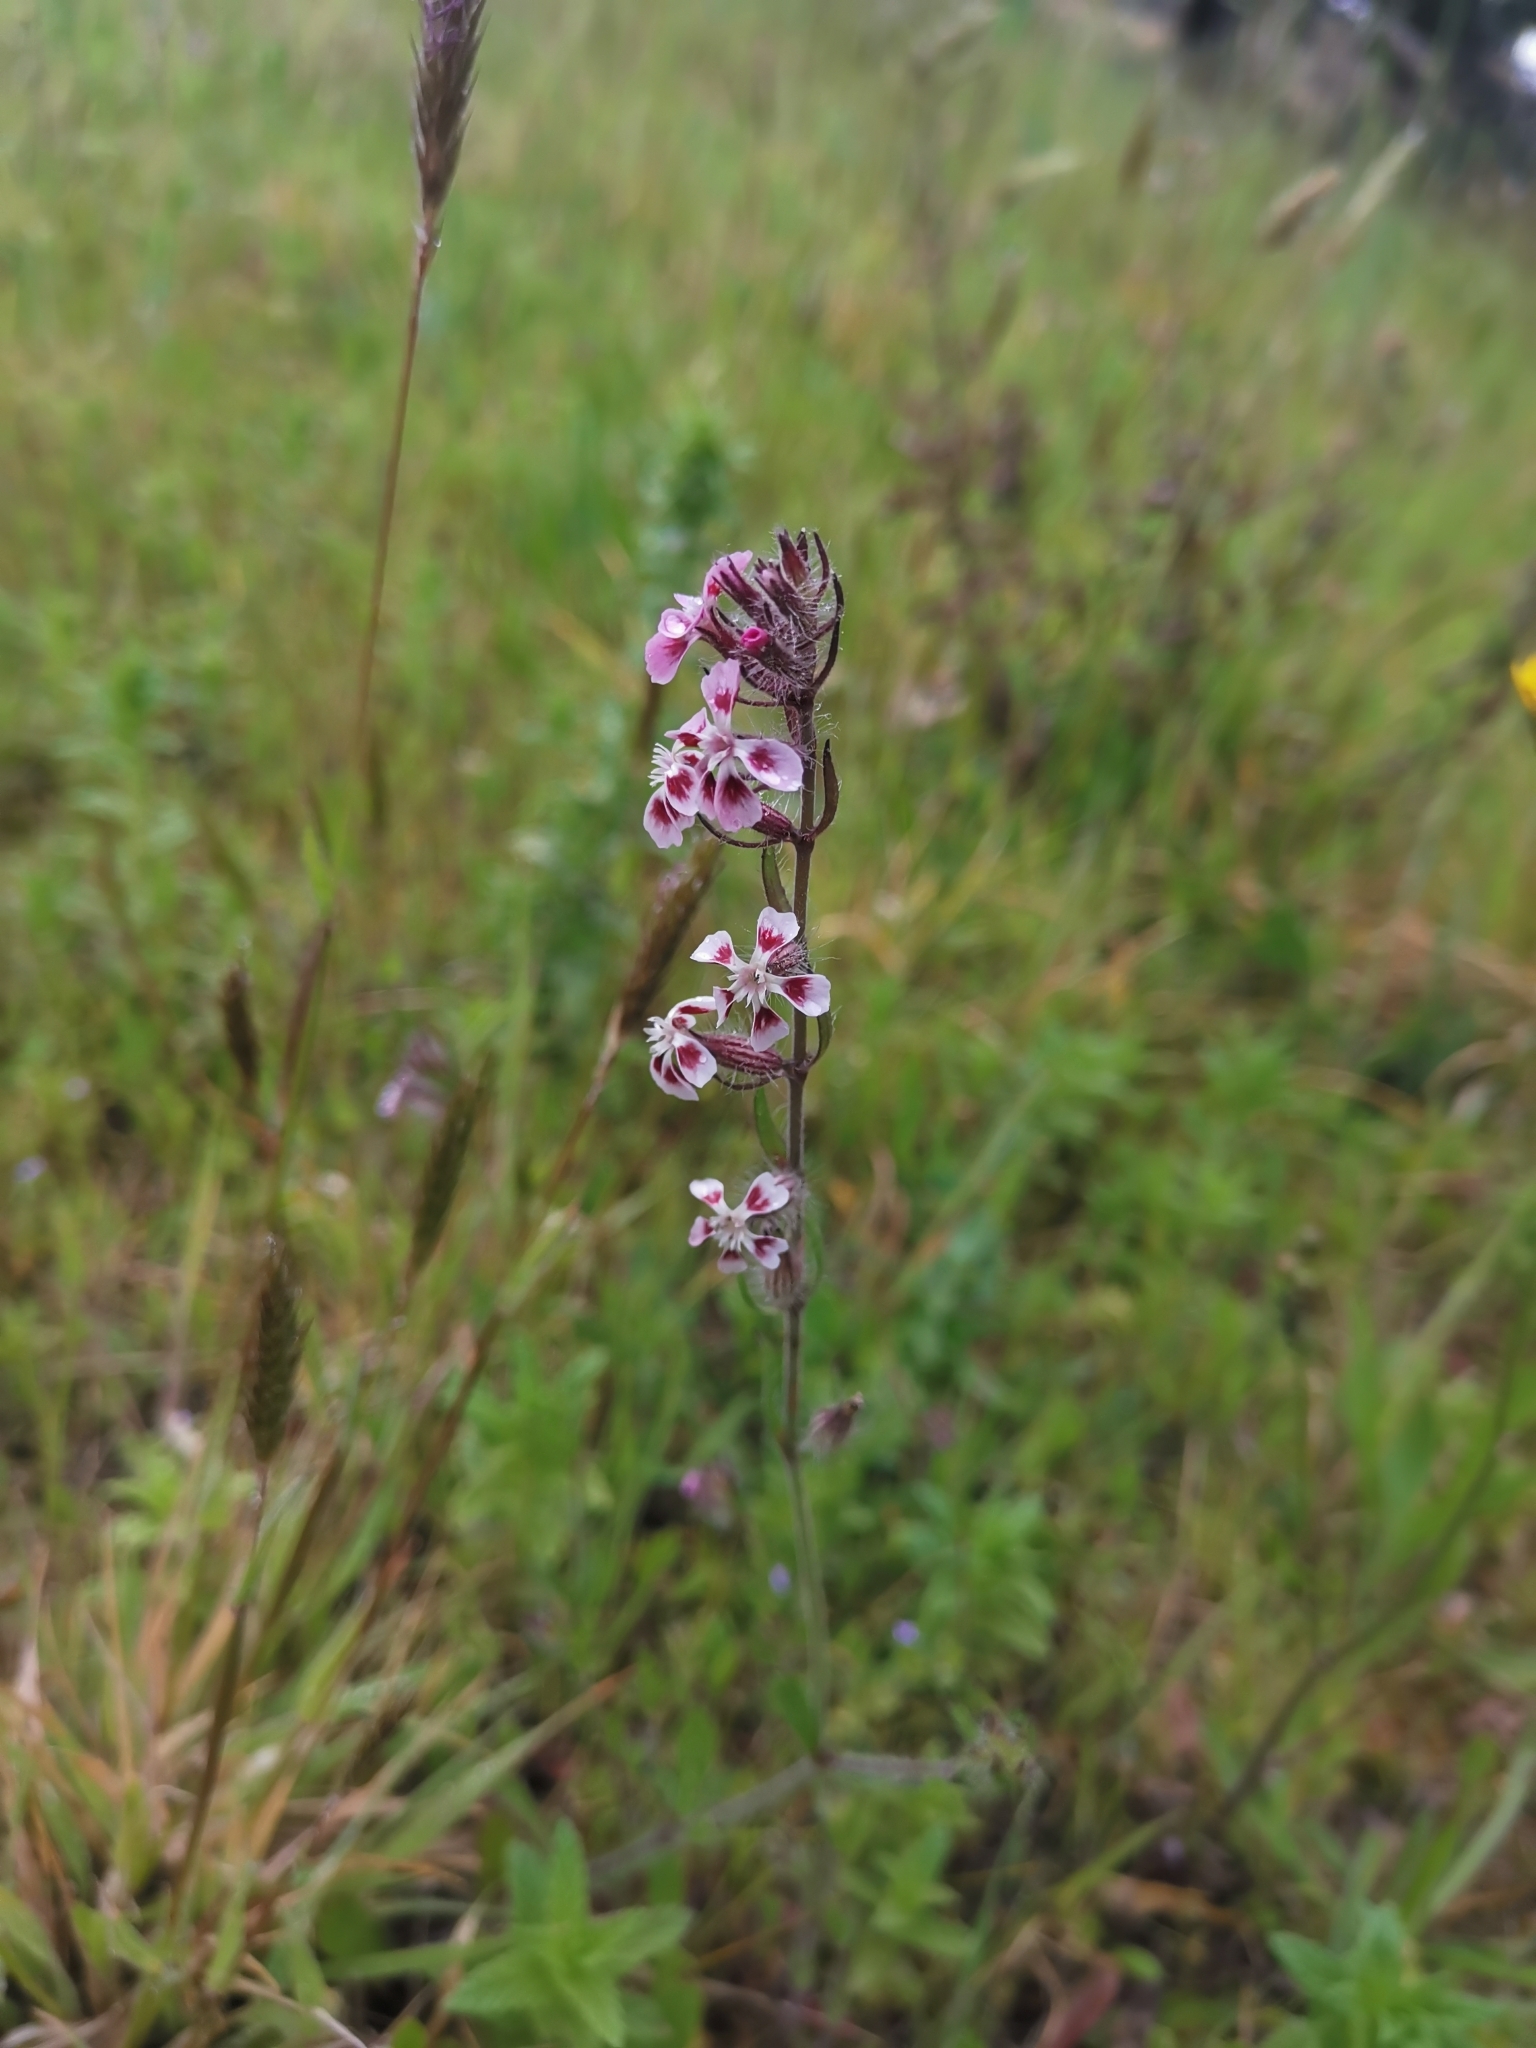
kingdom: Plantae
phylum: Tracheophyta
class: Magnoliopsida
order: Caryophyllales
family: Caryophyllaceae
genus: Silene
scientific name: Silene gallica
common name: Small-flowered catchfly
